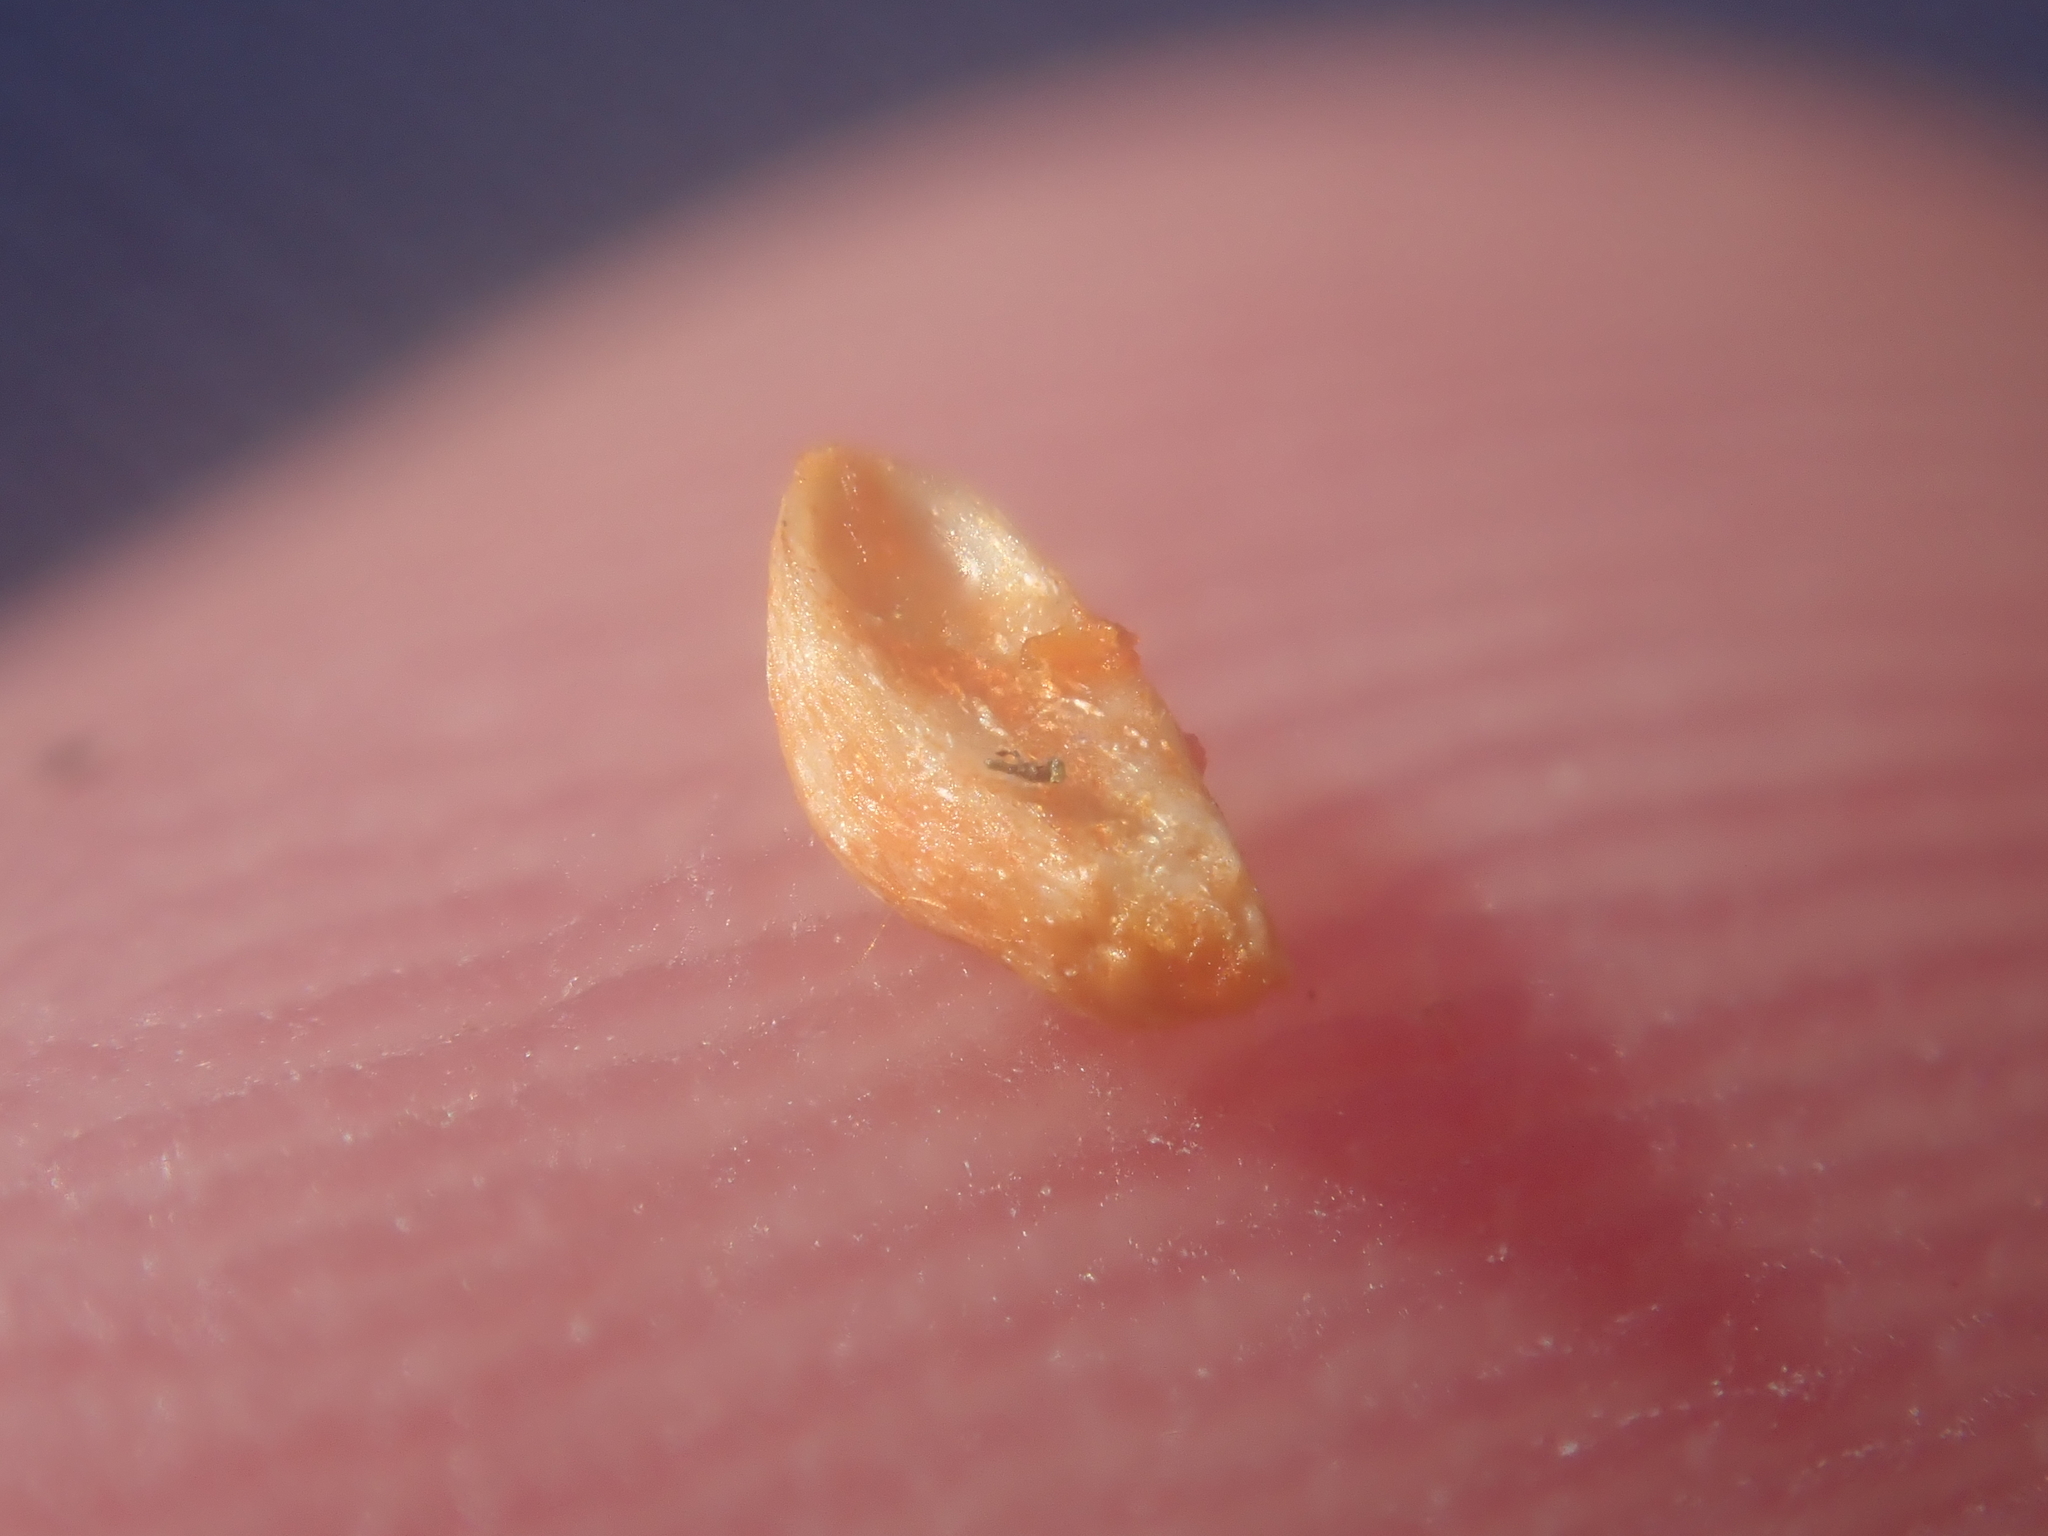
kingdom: Plantae
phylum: Tracheophyta
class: Magnoliopsida
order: Gentianales
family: Rubiaceae
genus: Coprosma
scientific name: Coprosma robusta
